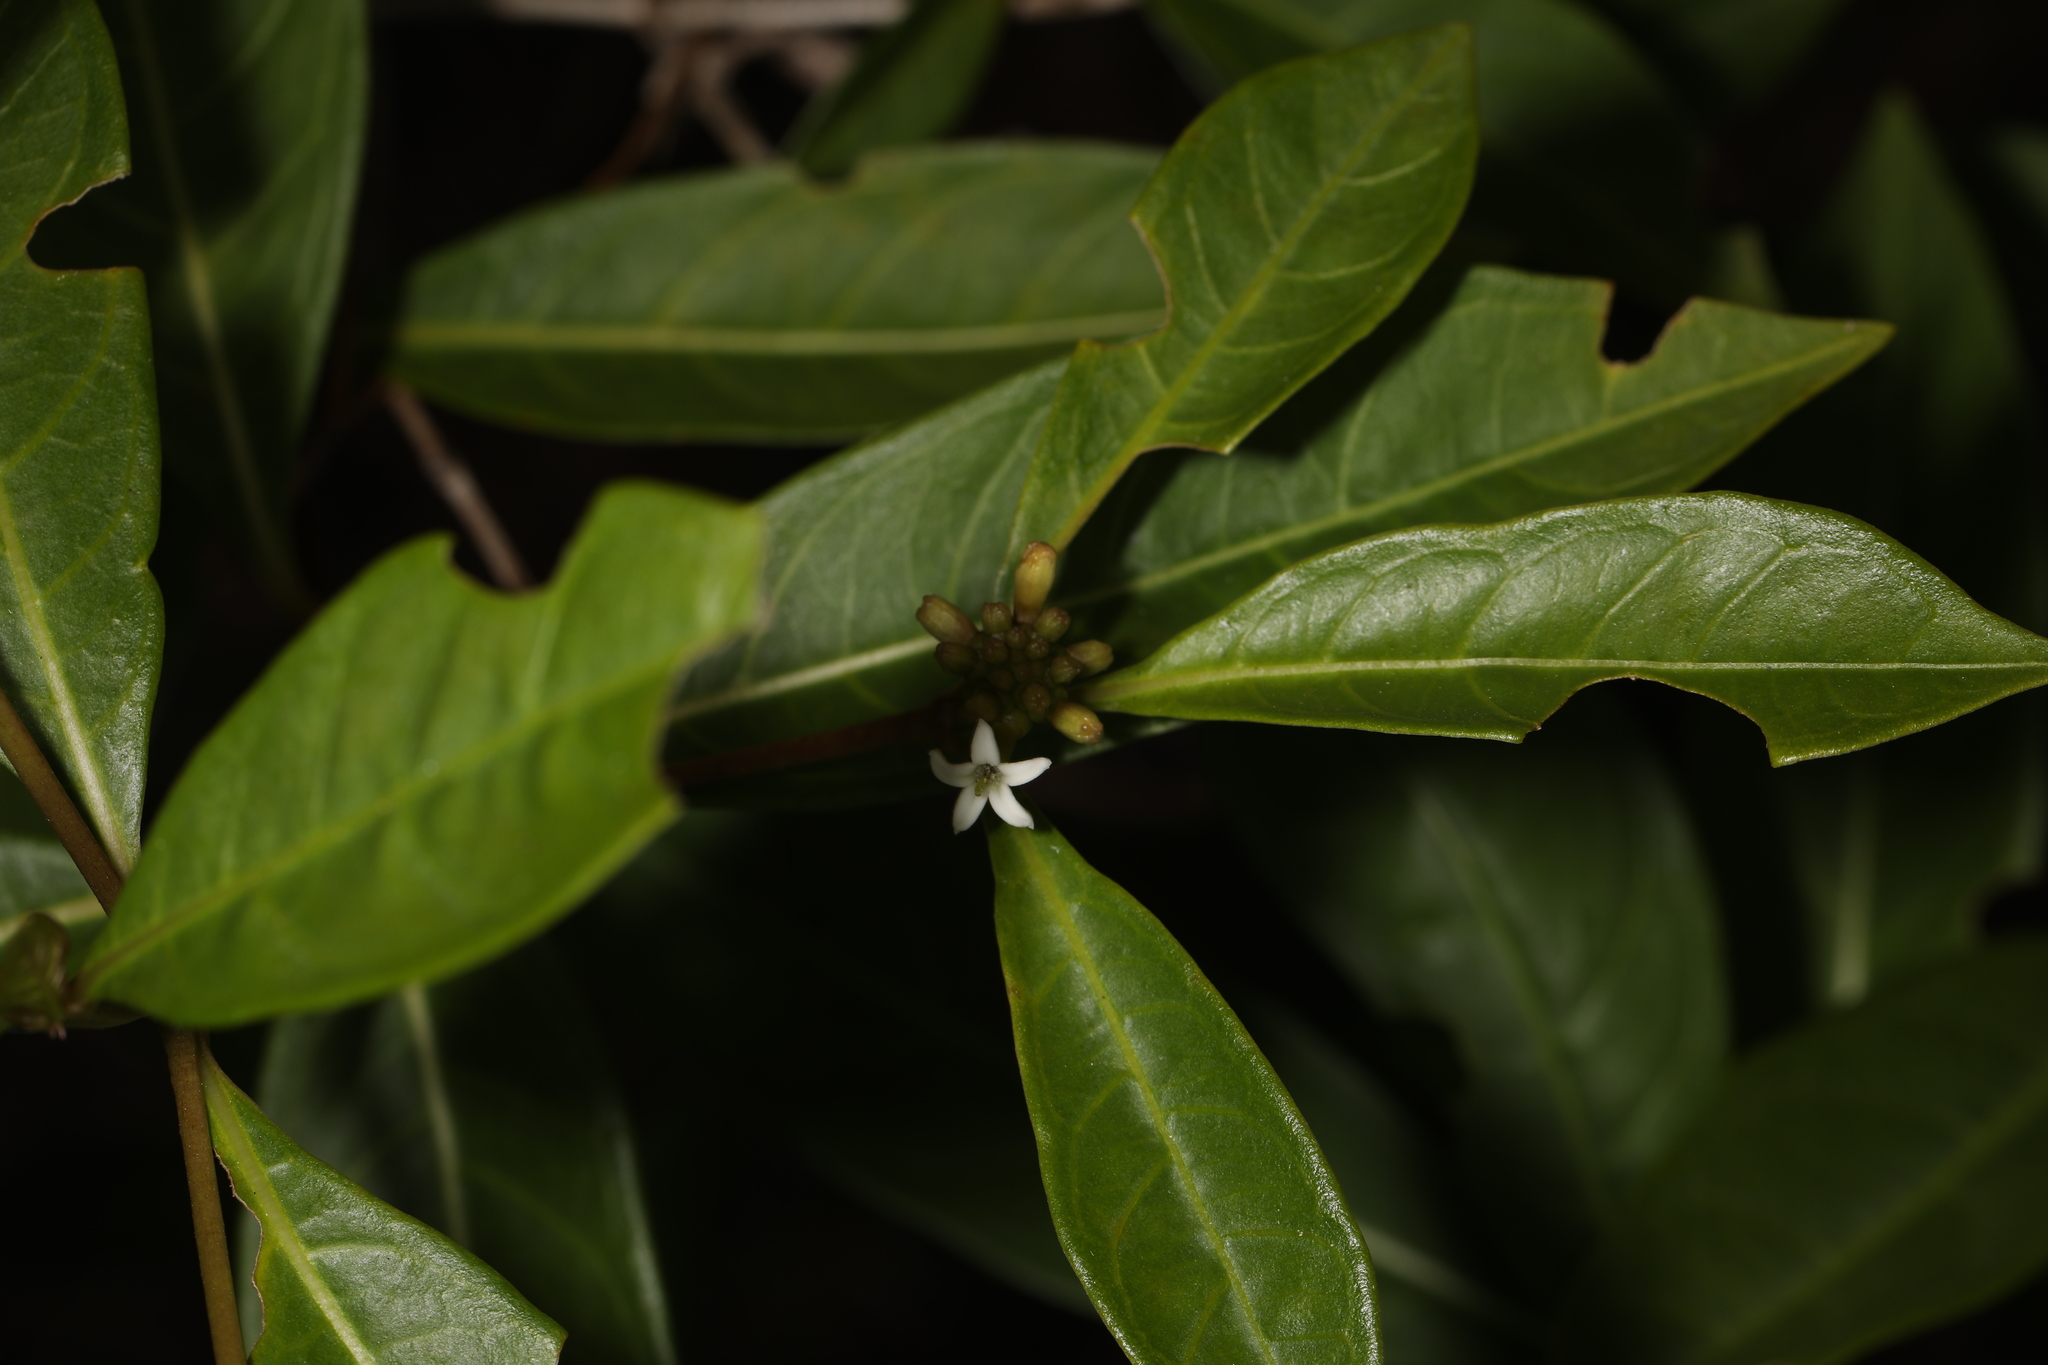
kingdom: Plantae
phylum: Tracheophyta
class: Magnoliopsida
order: Gentianales
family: Rubiaceae
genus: Morinda
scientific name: Morinda royoc
